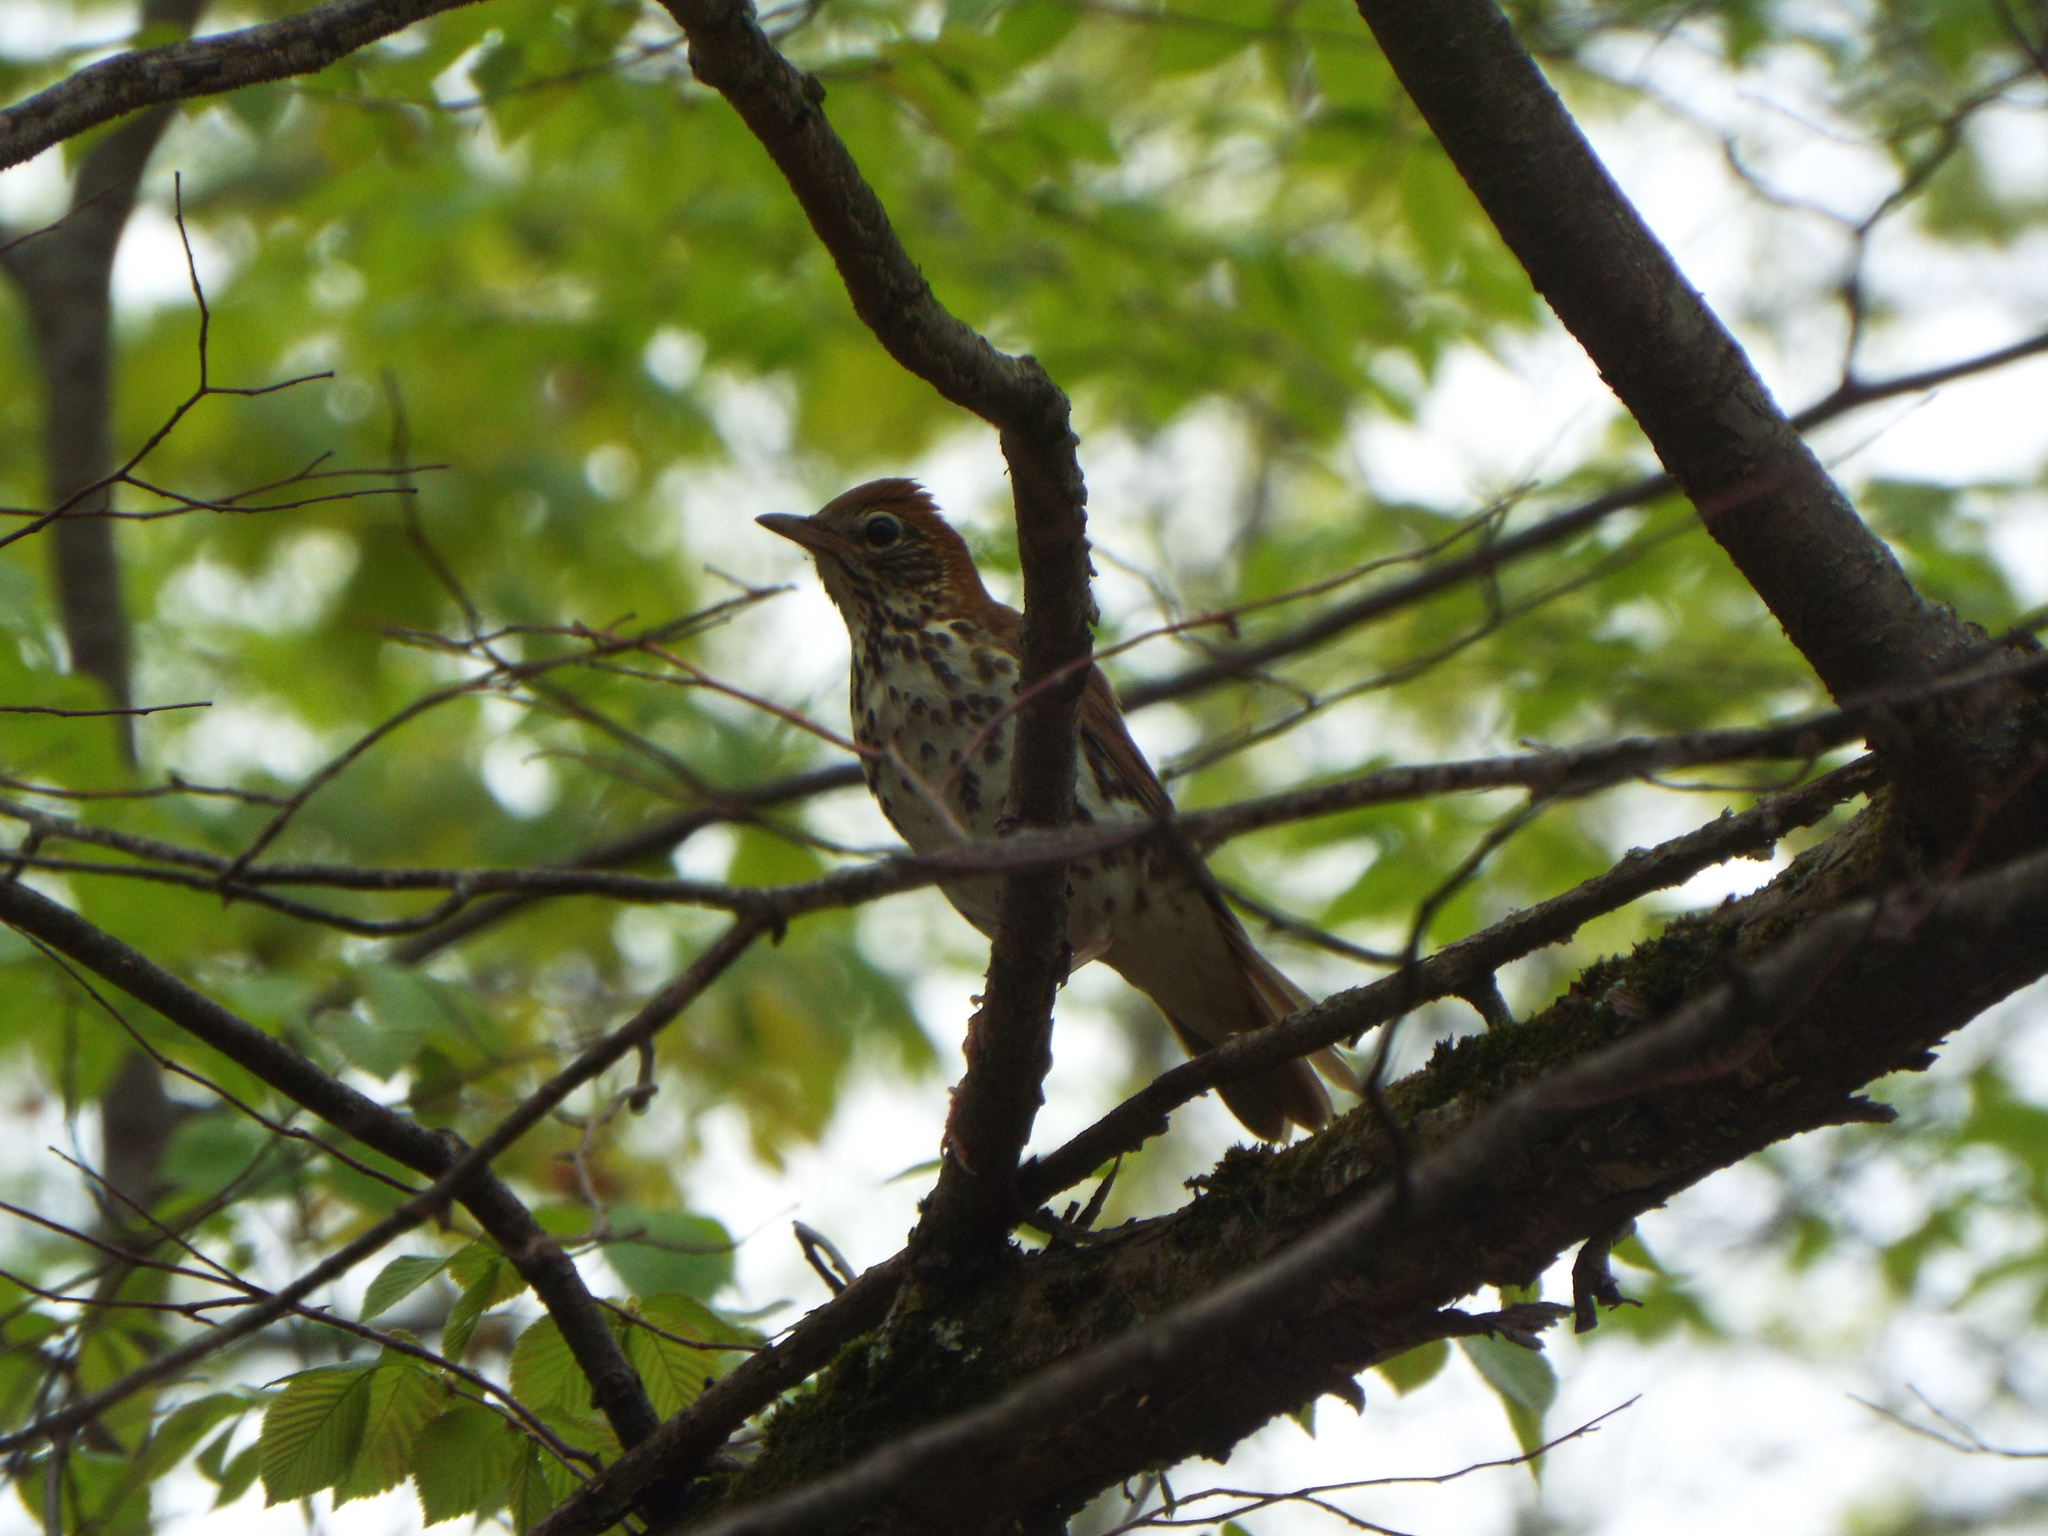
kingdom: Animalia
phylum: Chordata
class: Aves
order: Passeriformes
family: Turdidae
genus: Hylocichla
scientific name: Hylocichla mustelina
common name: Wood thrush
